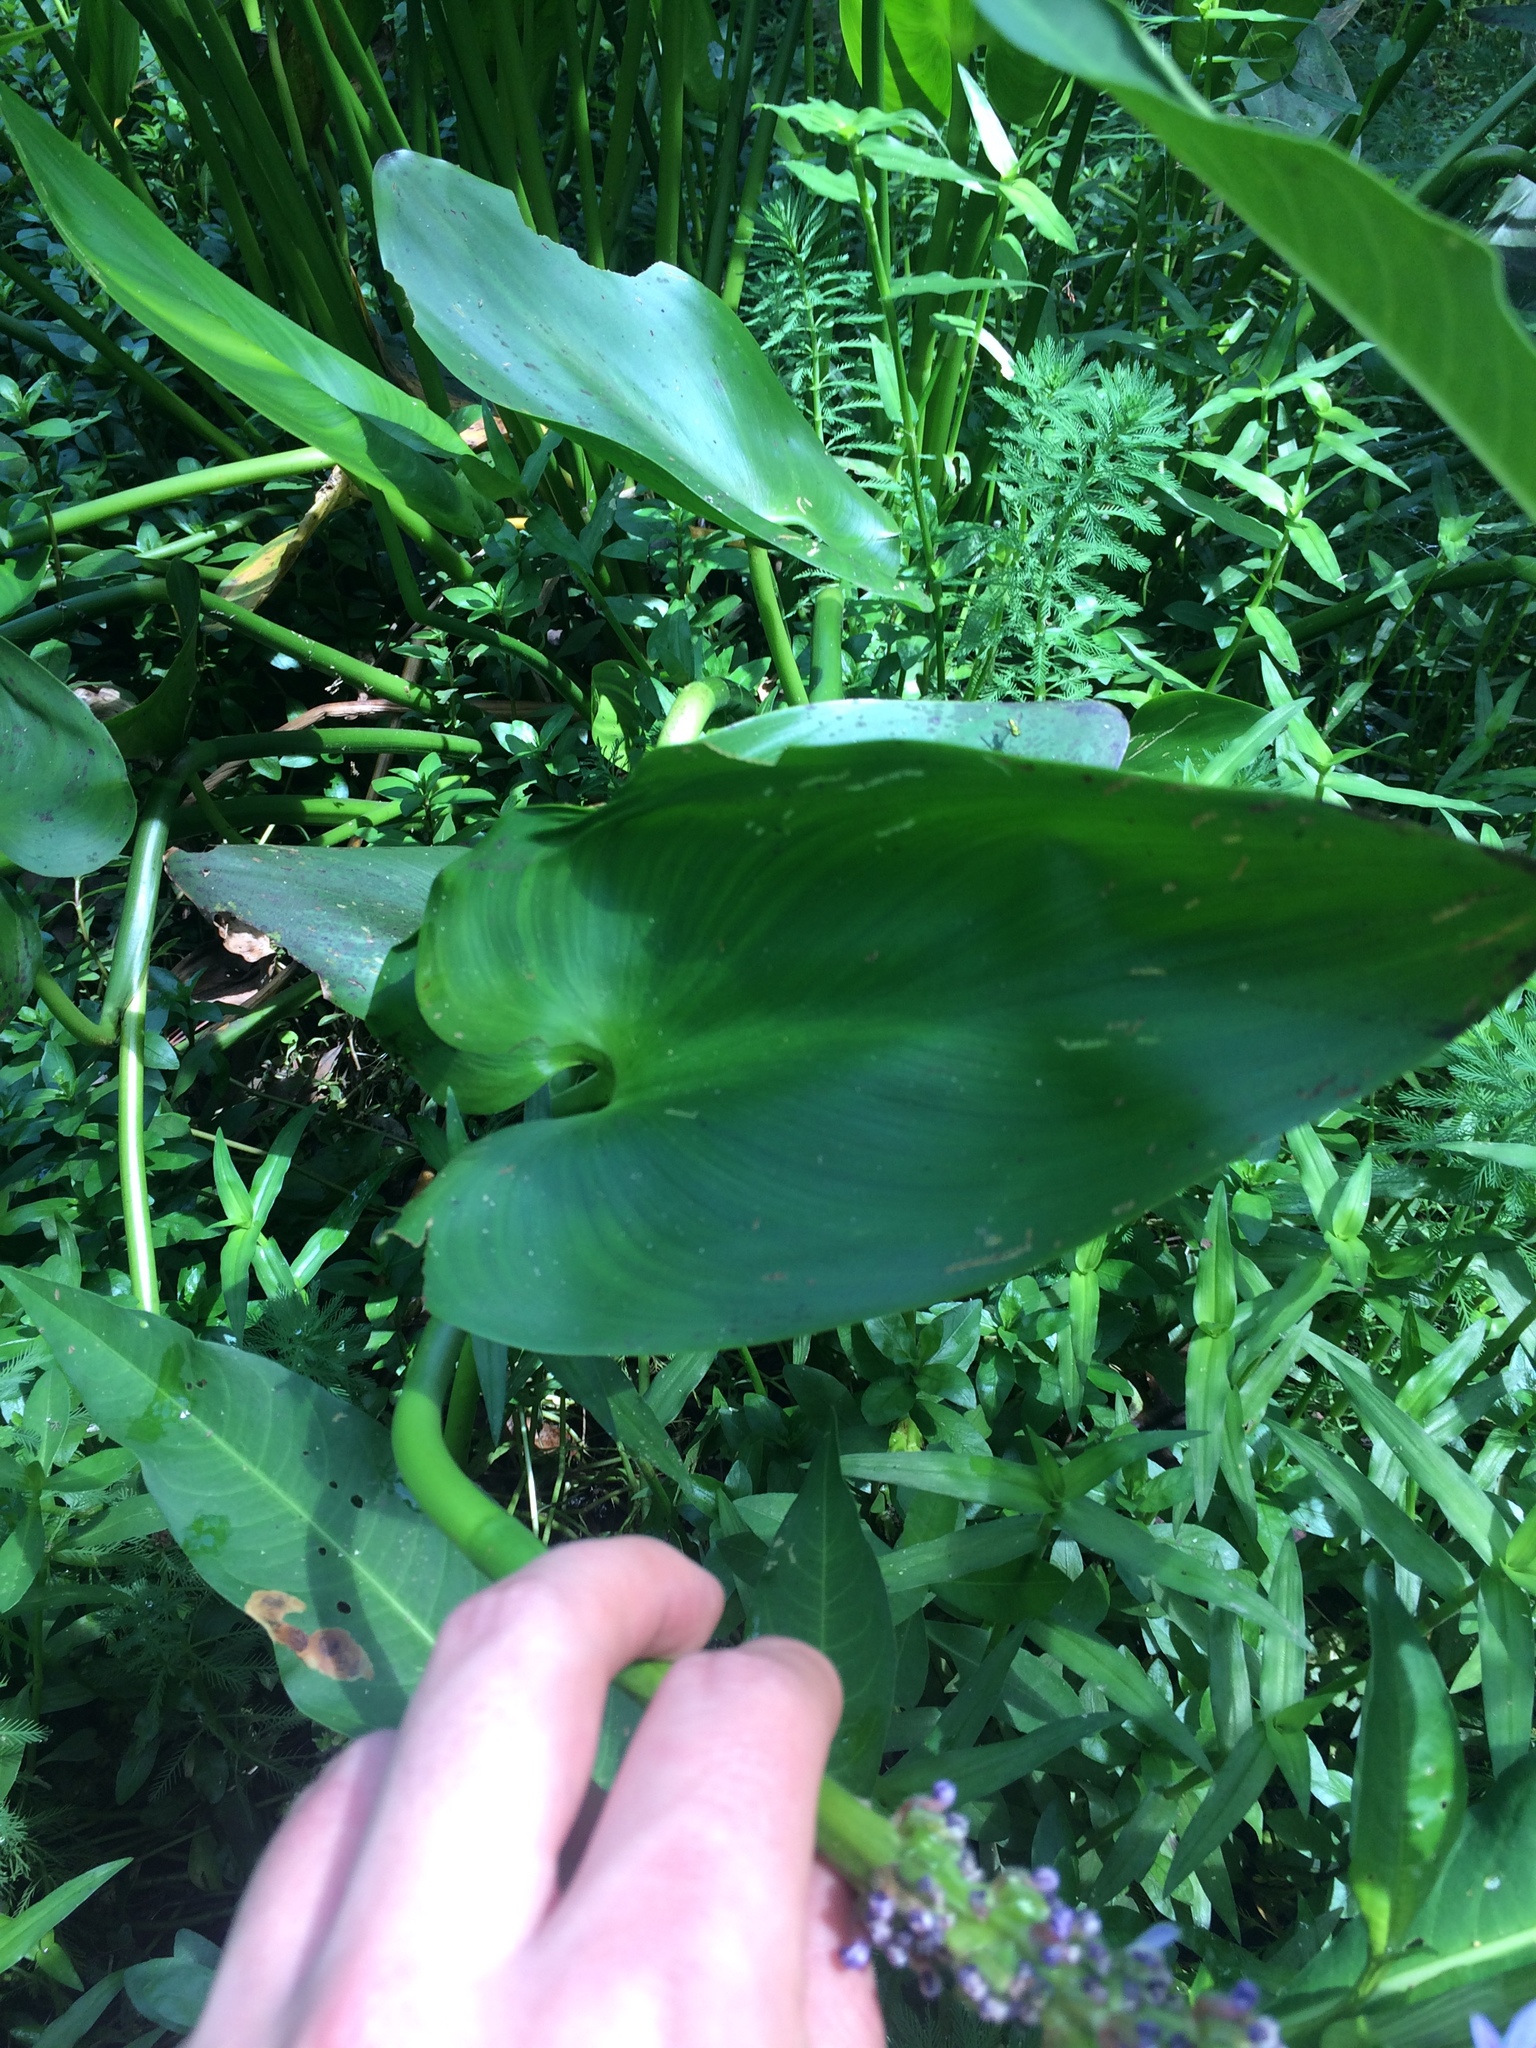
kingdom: Plantae
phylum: Tracheophyta
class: Liliopsida
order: Commelinales
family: Pontederiaceae
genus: Pontederia
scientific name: Pontederia cordata
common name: Pickerelweed
